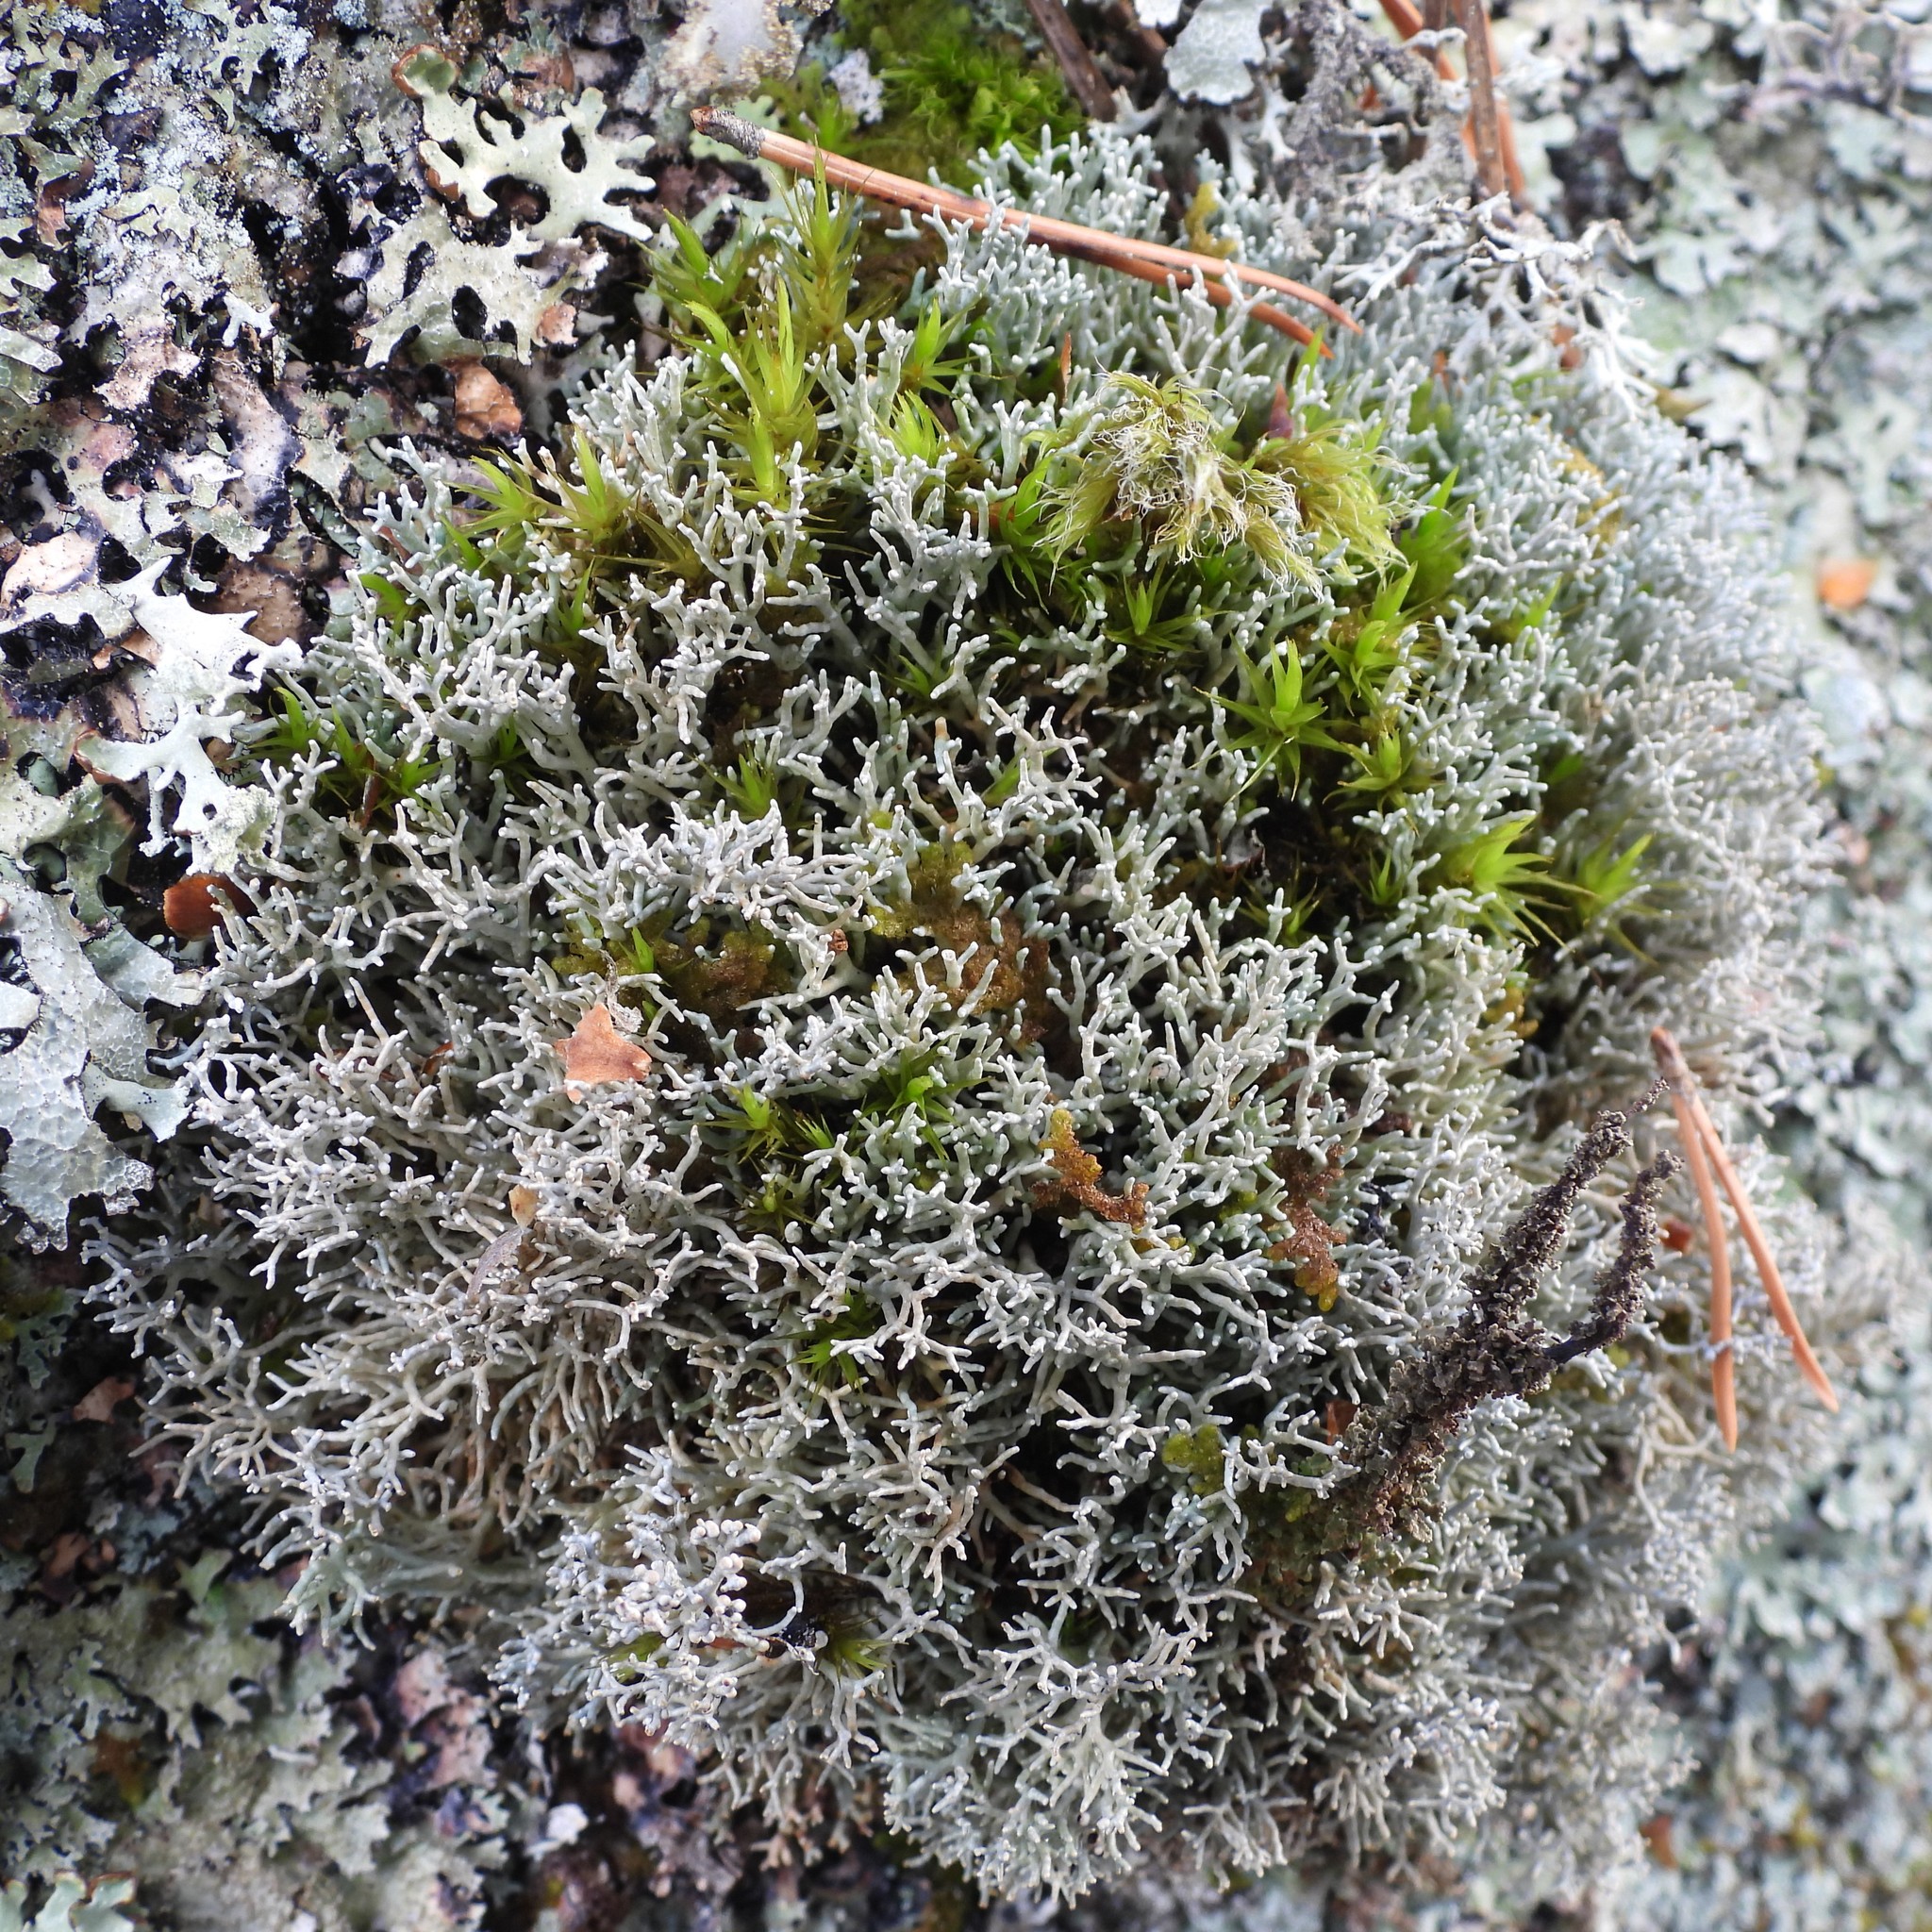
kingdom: Fungi
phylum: Ascomycota
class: Lecanoromycetes
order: Lecanorales
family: Sphaerophoraceae
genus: Sphaerophorus
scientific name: Sphaerophorus fragilis
